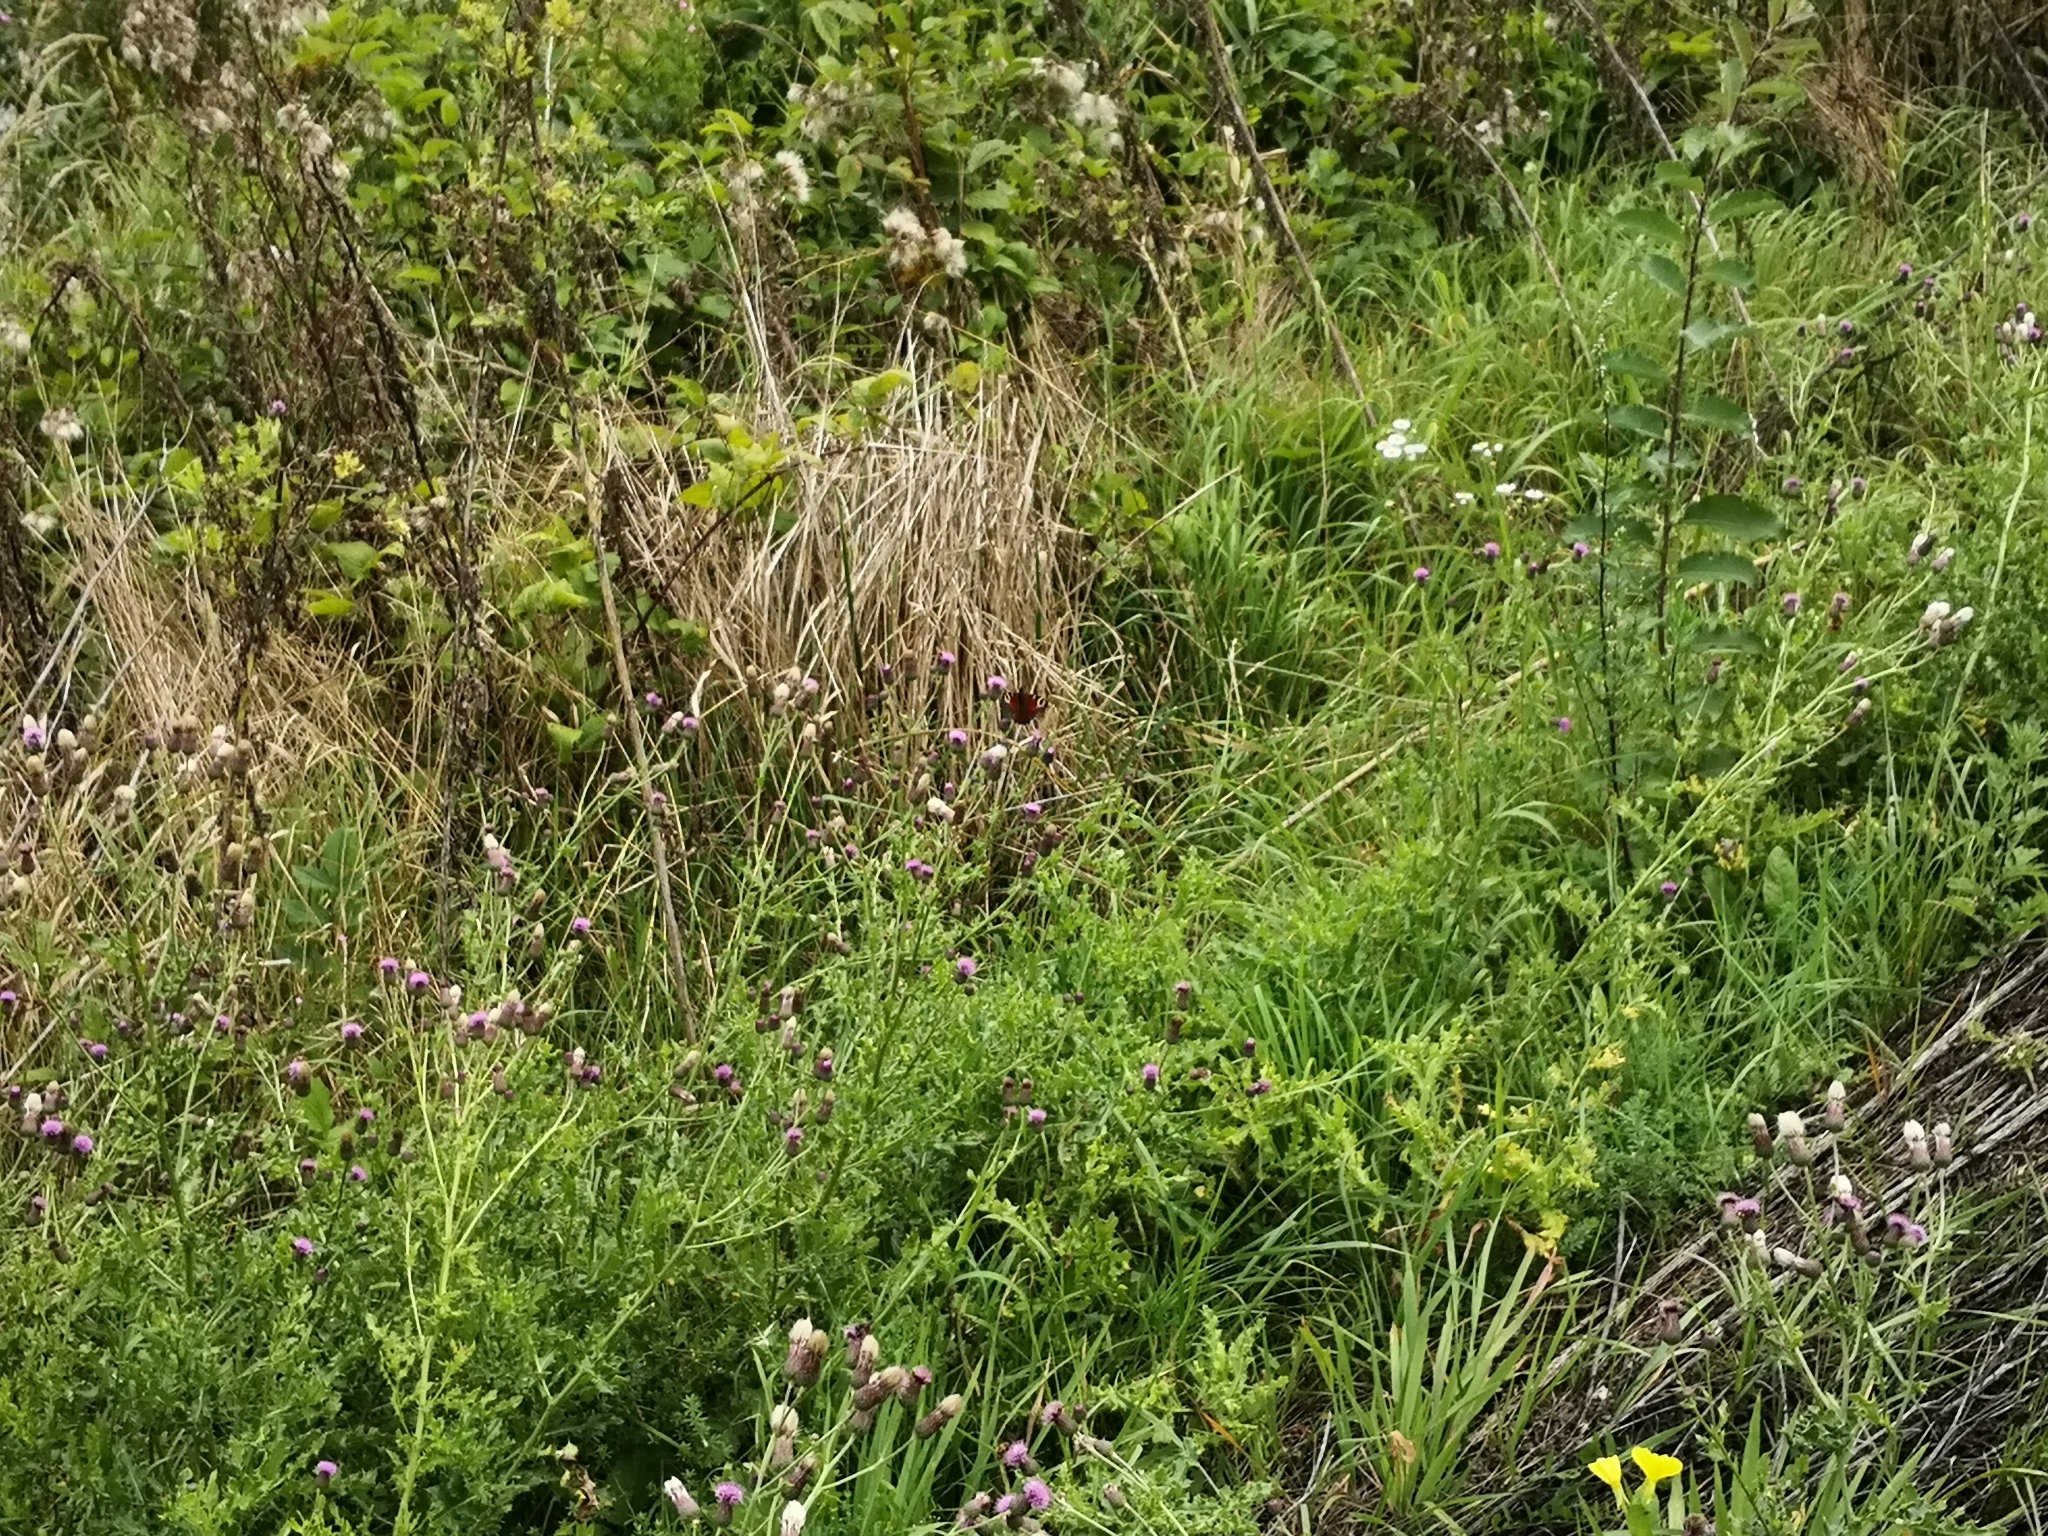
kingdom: Animalia
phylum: Arthropoda
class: Insecta
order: Lepidoptera
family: Nymphalidae
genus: Aglais
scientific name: Aglais io
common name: Peacock
